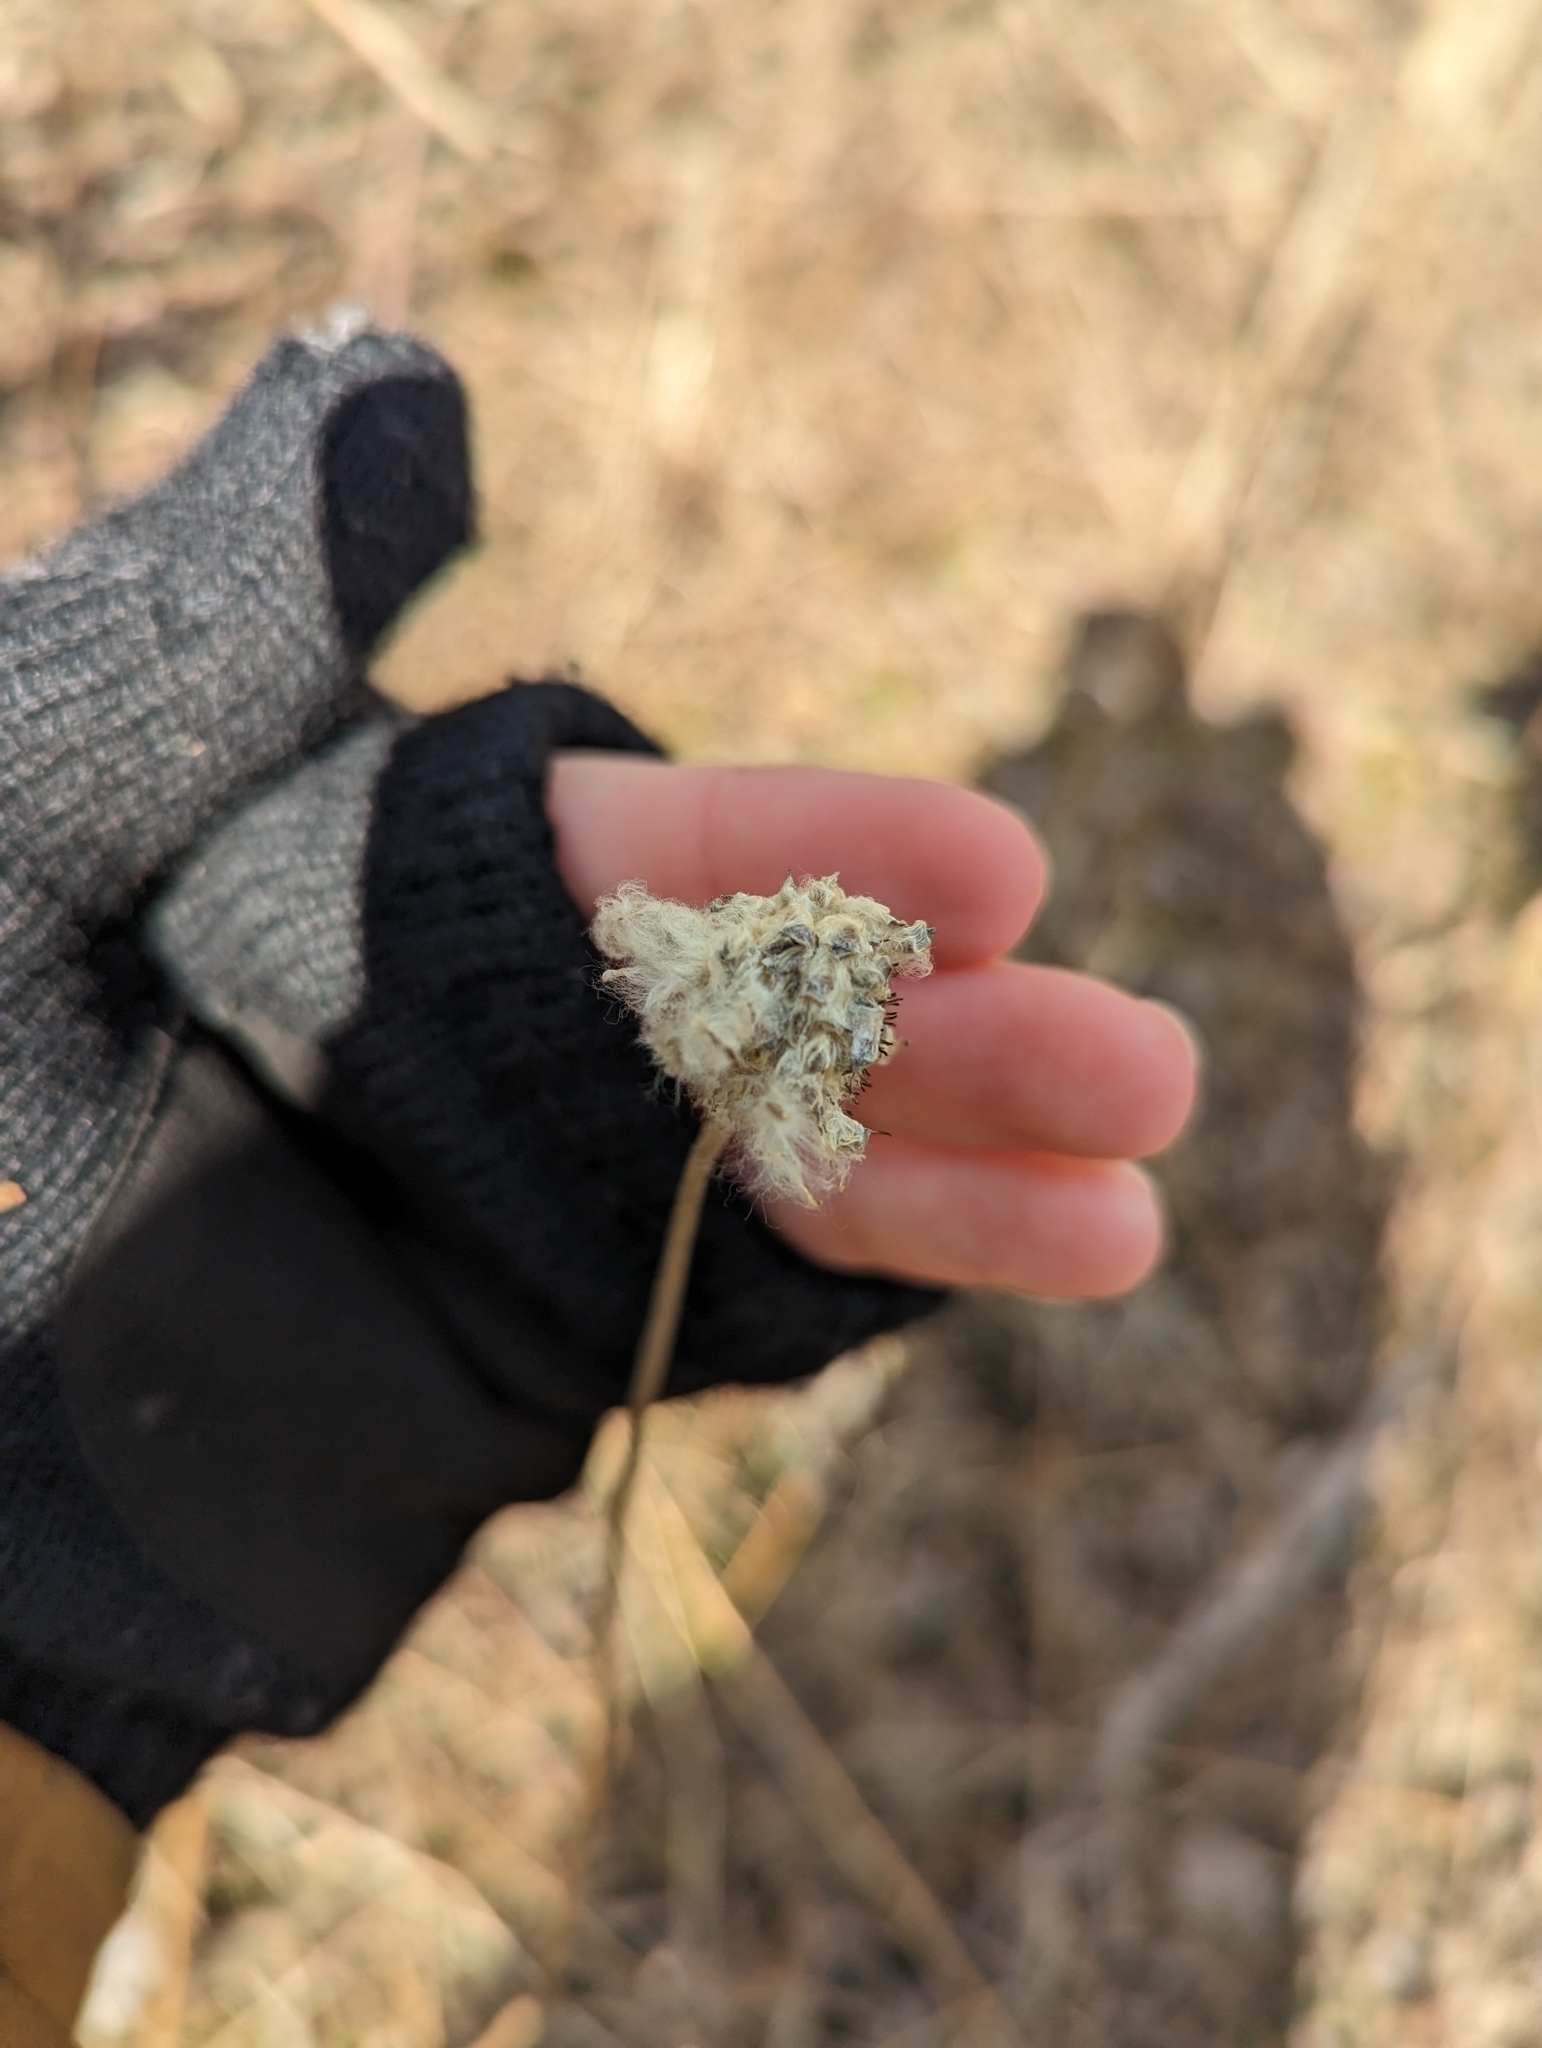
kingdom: Plantae
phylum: Tracheophyta
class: Magnoliopsida
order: Ranunculales
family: Ranunculaceae
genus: Anemone
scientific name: Anemone virginiana
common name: Tall anemone
